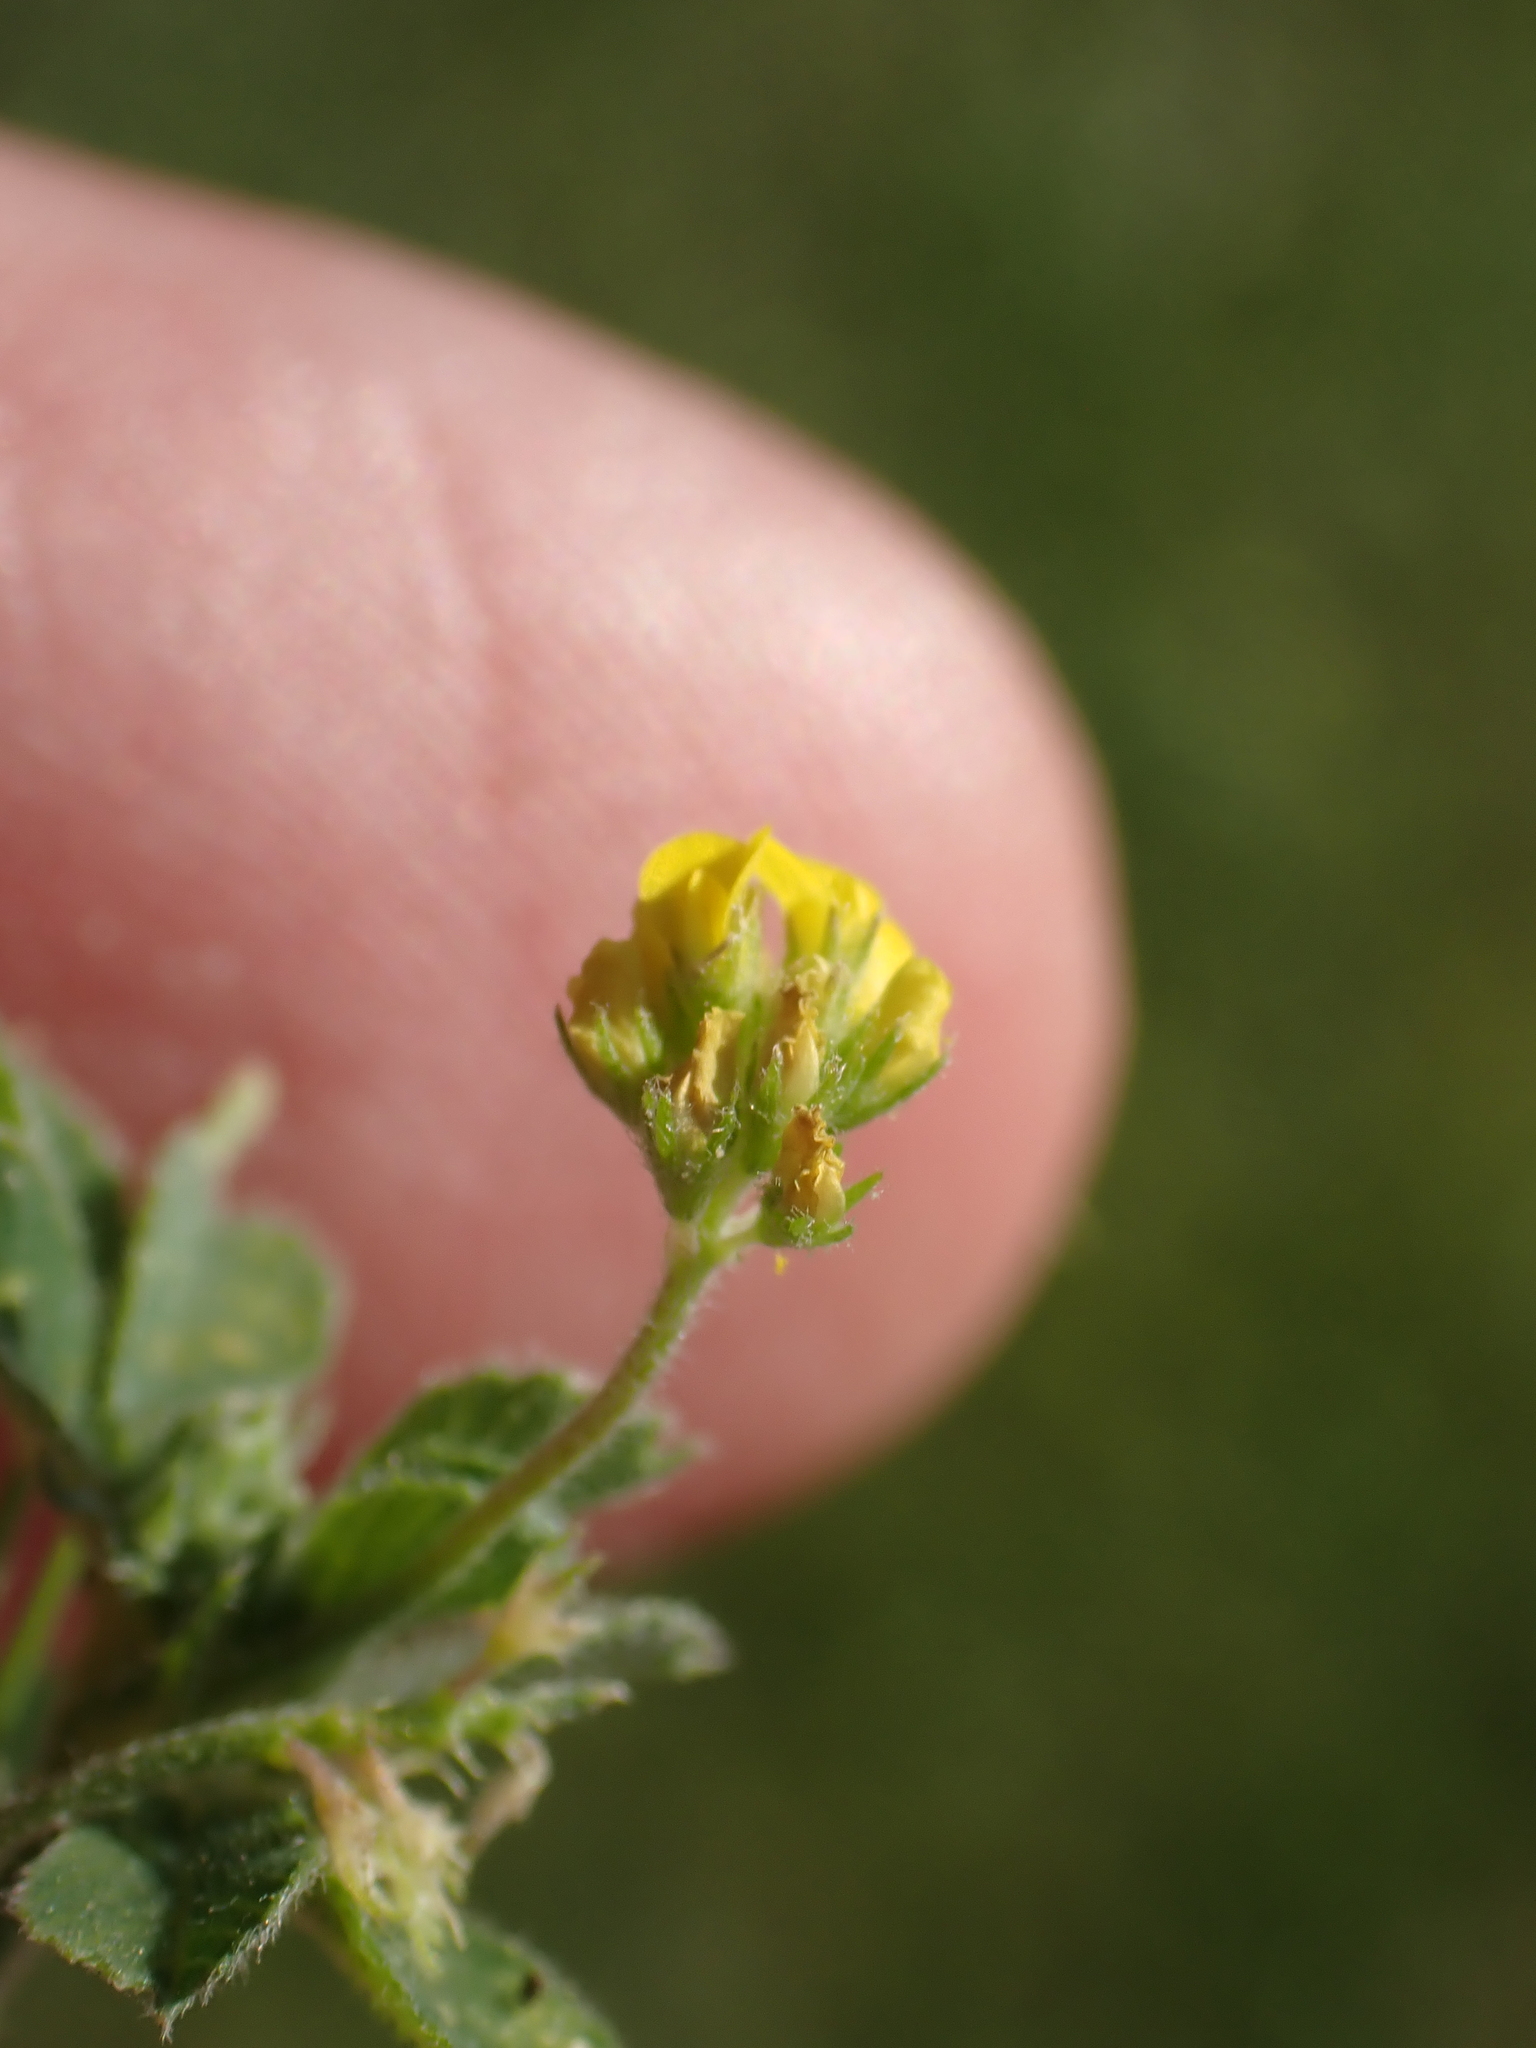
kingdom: Plantae
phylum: Tracheophyta
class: Magnoliopsida
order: Fabales
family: Fabaceae
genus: Medicago
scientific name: Medicago lupulina
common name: Black medick
